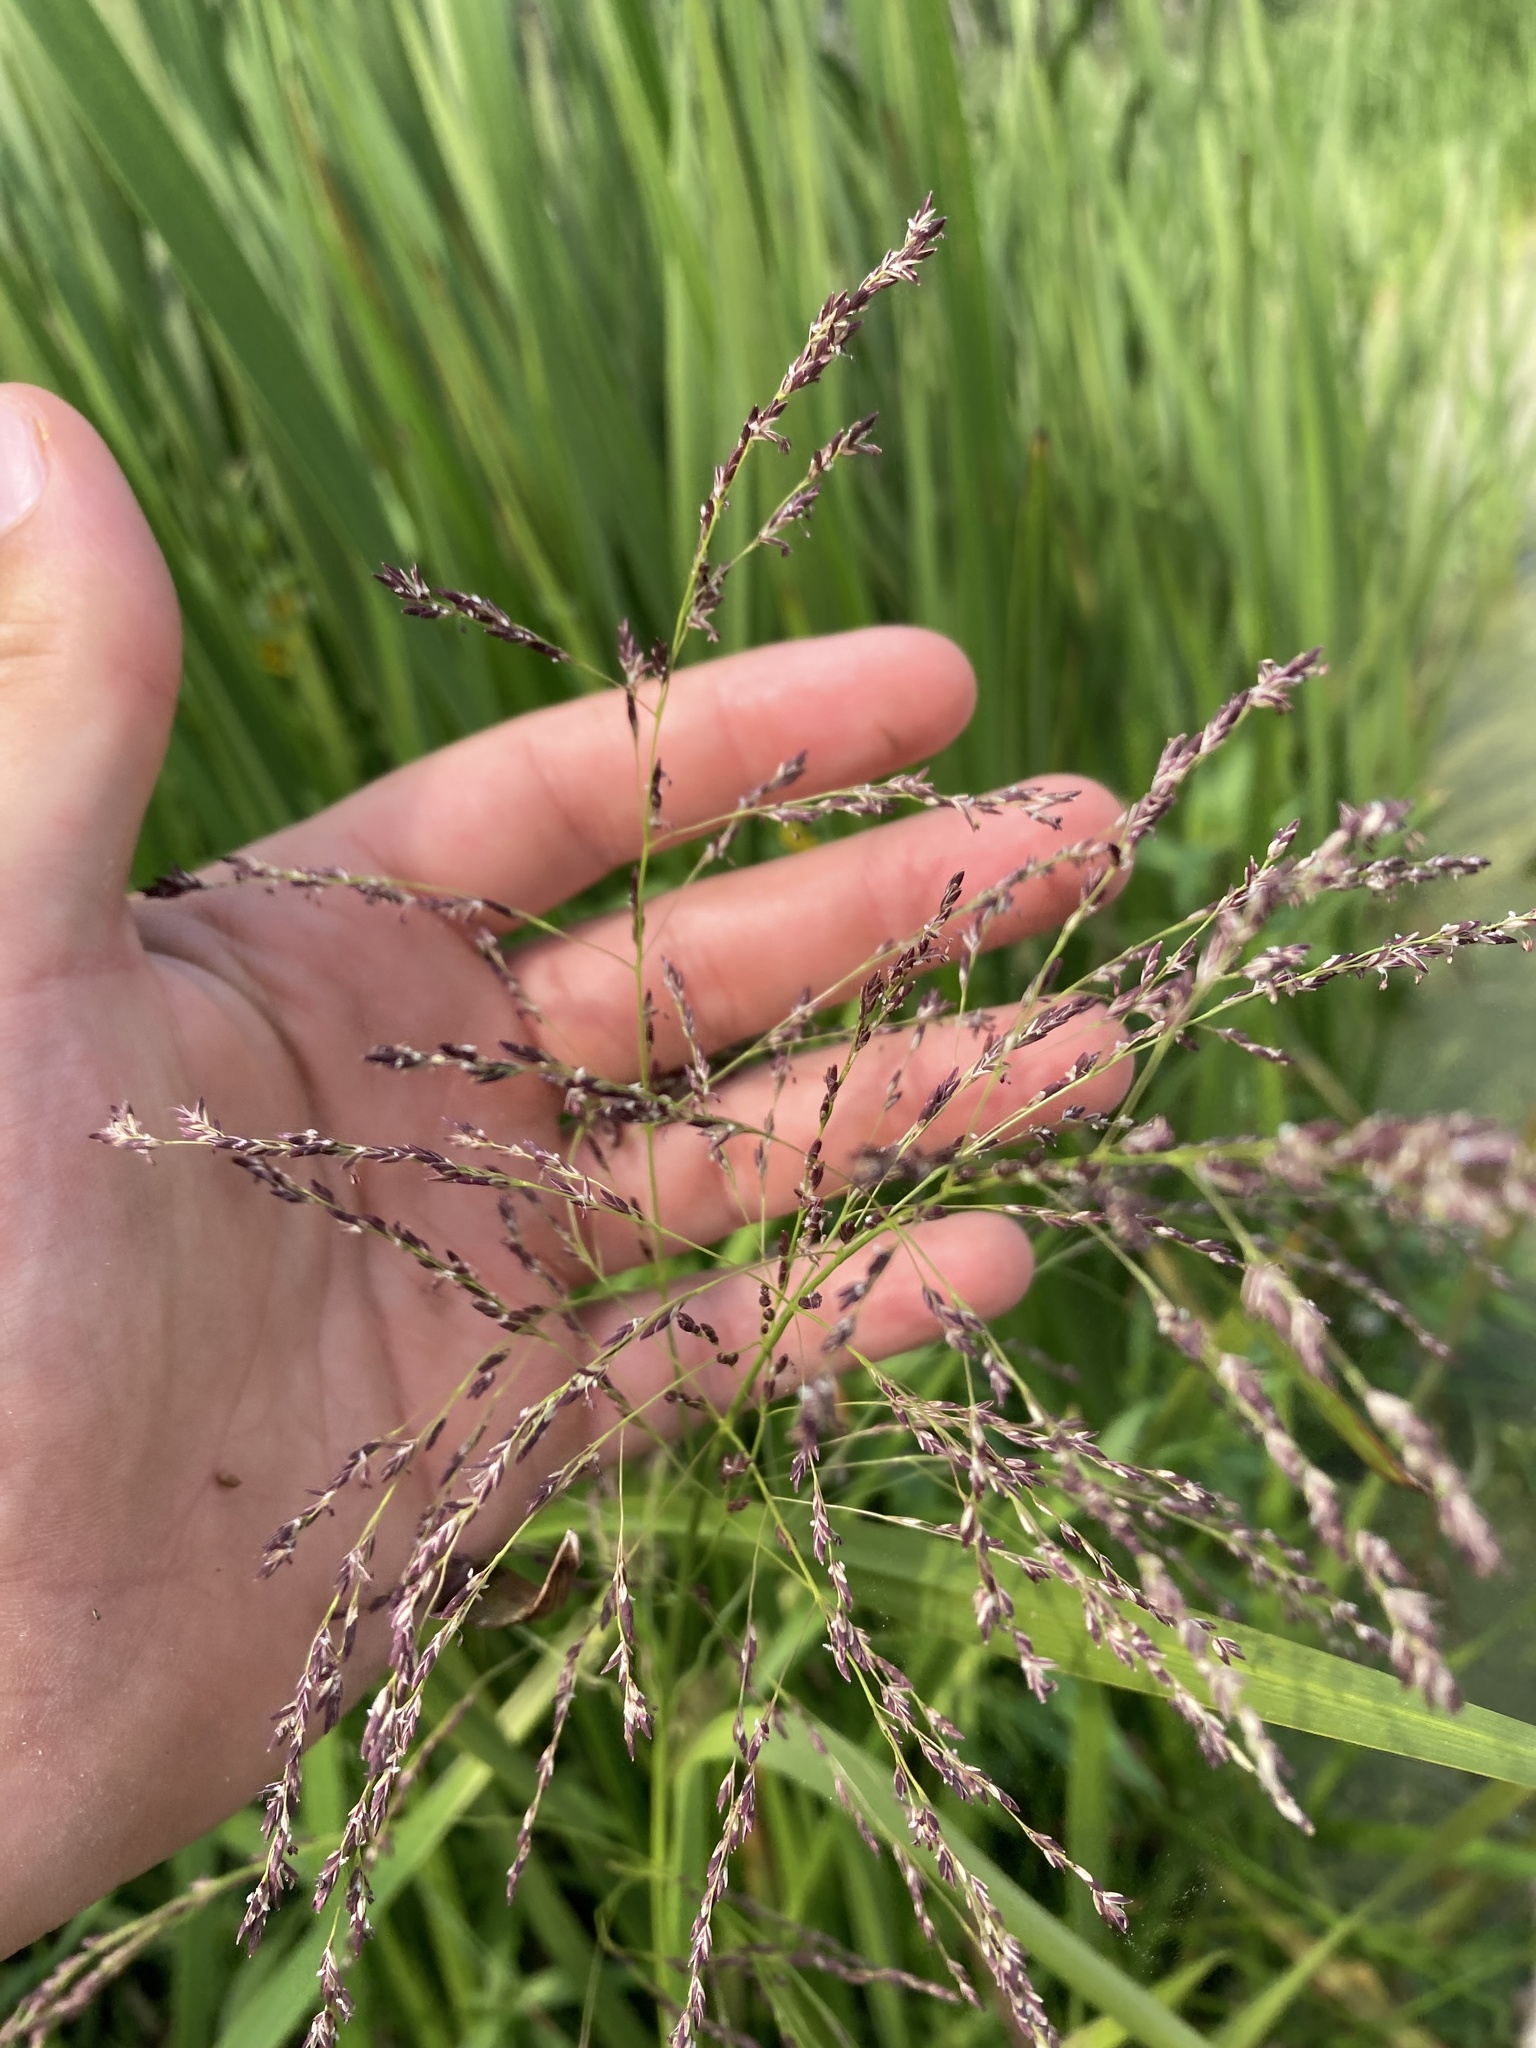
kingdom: Plantae
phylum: Tracheophyta
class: Liliopsida
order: Poales
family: Poaceae
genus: Glyceria
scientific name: Glyceria grandis
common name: American glyceria
